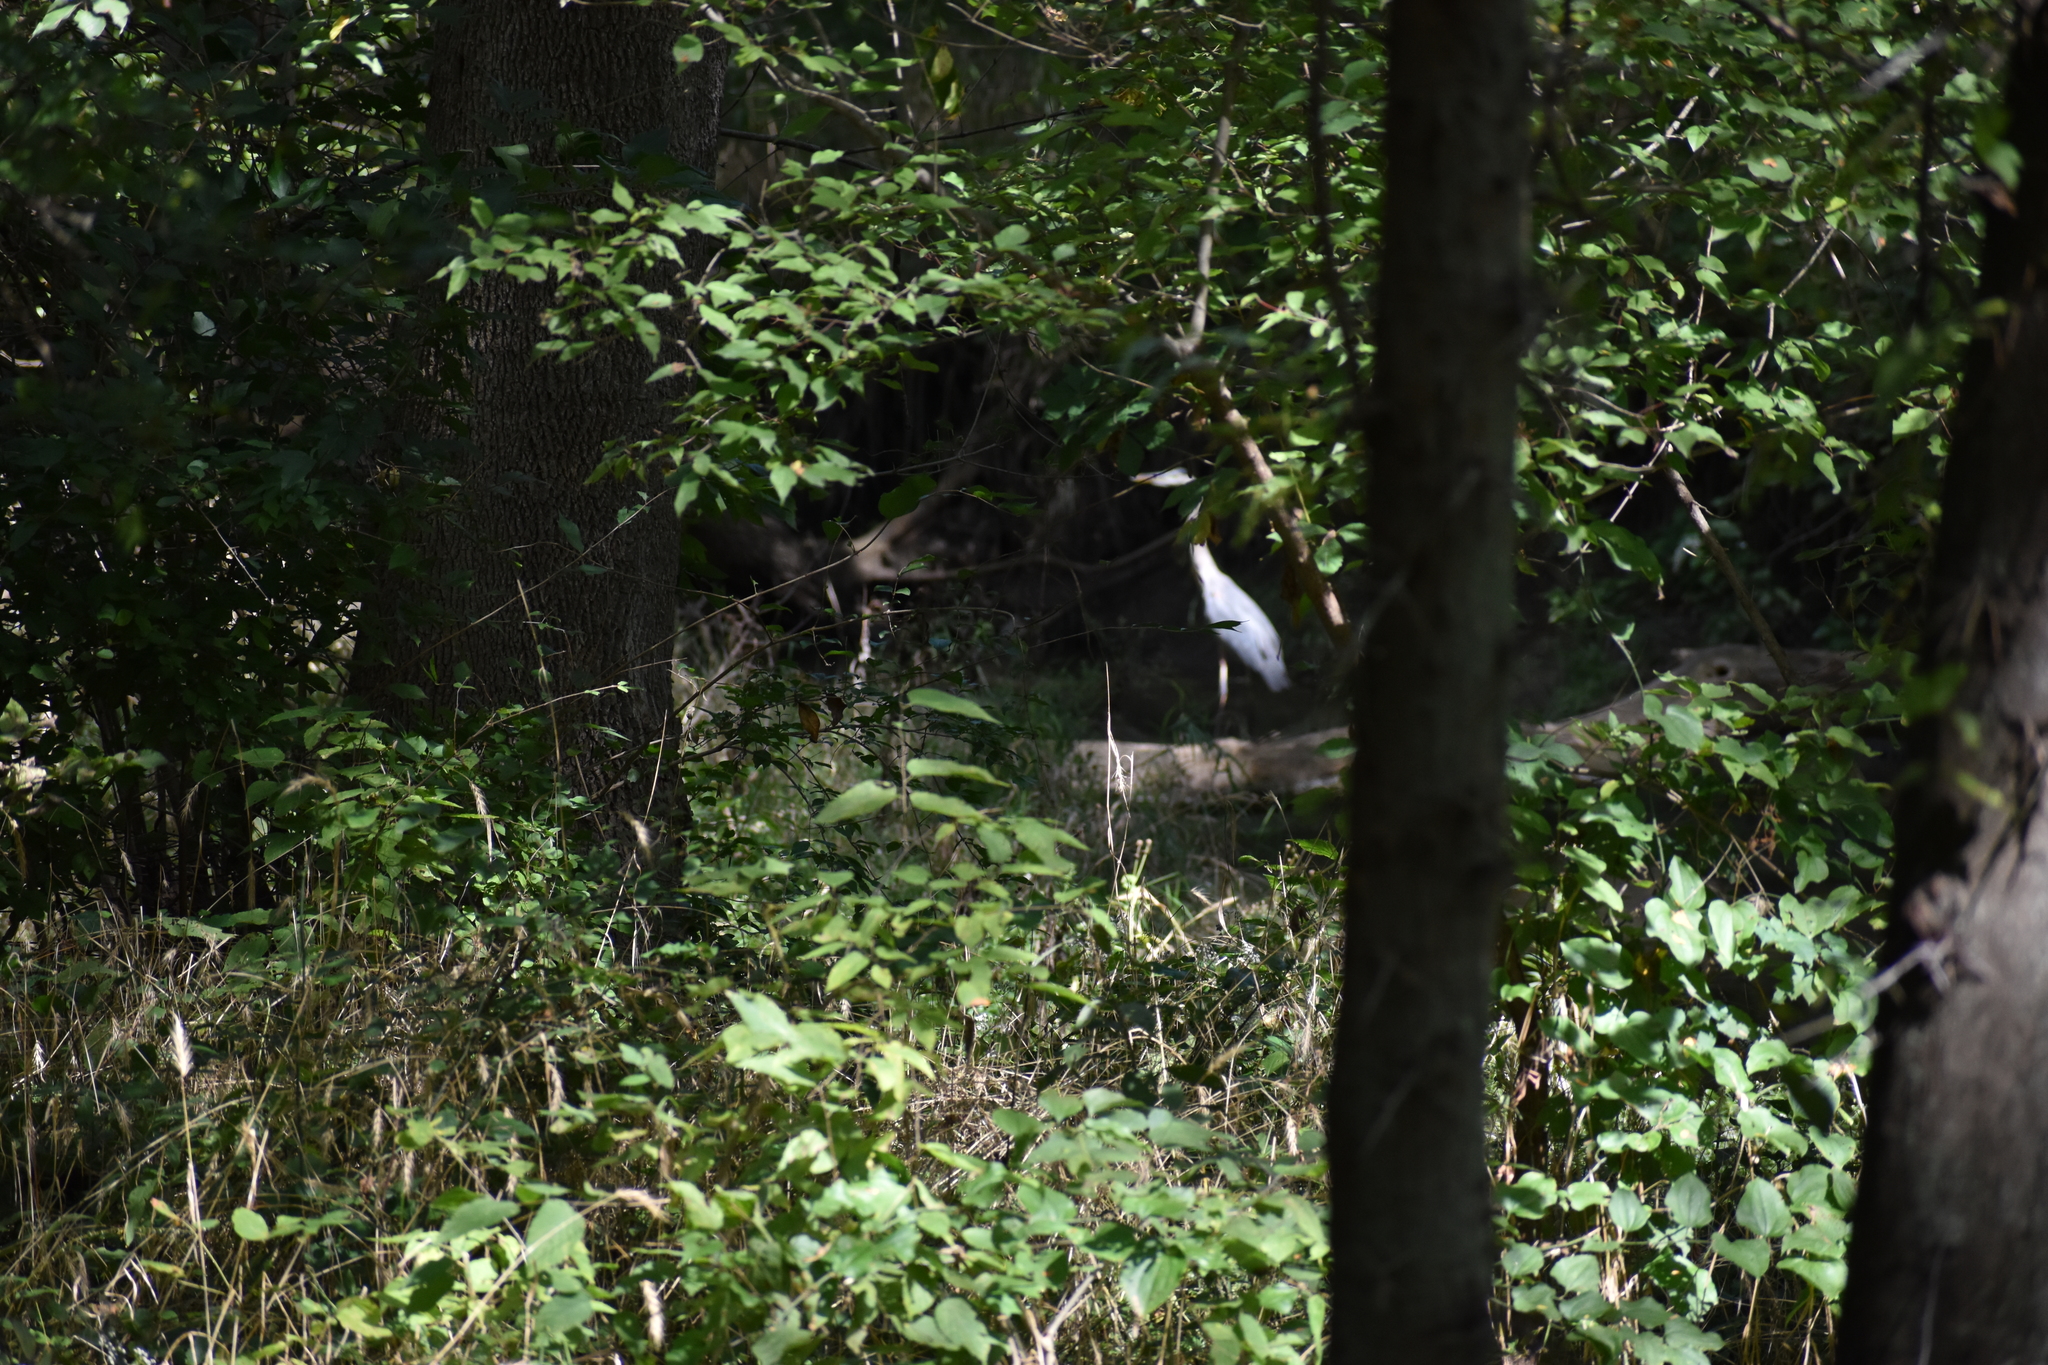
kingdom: Animalia
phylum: Chordata
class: Aves
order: Pelecaniformes
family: Ardeidae
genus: Ardea
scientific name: Ardea herodias
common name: Great blue heron
